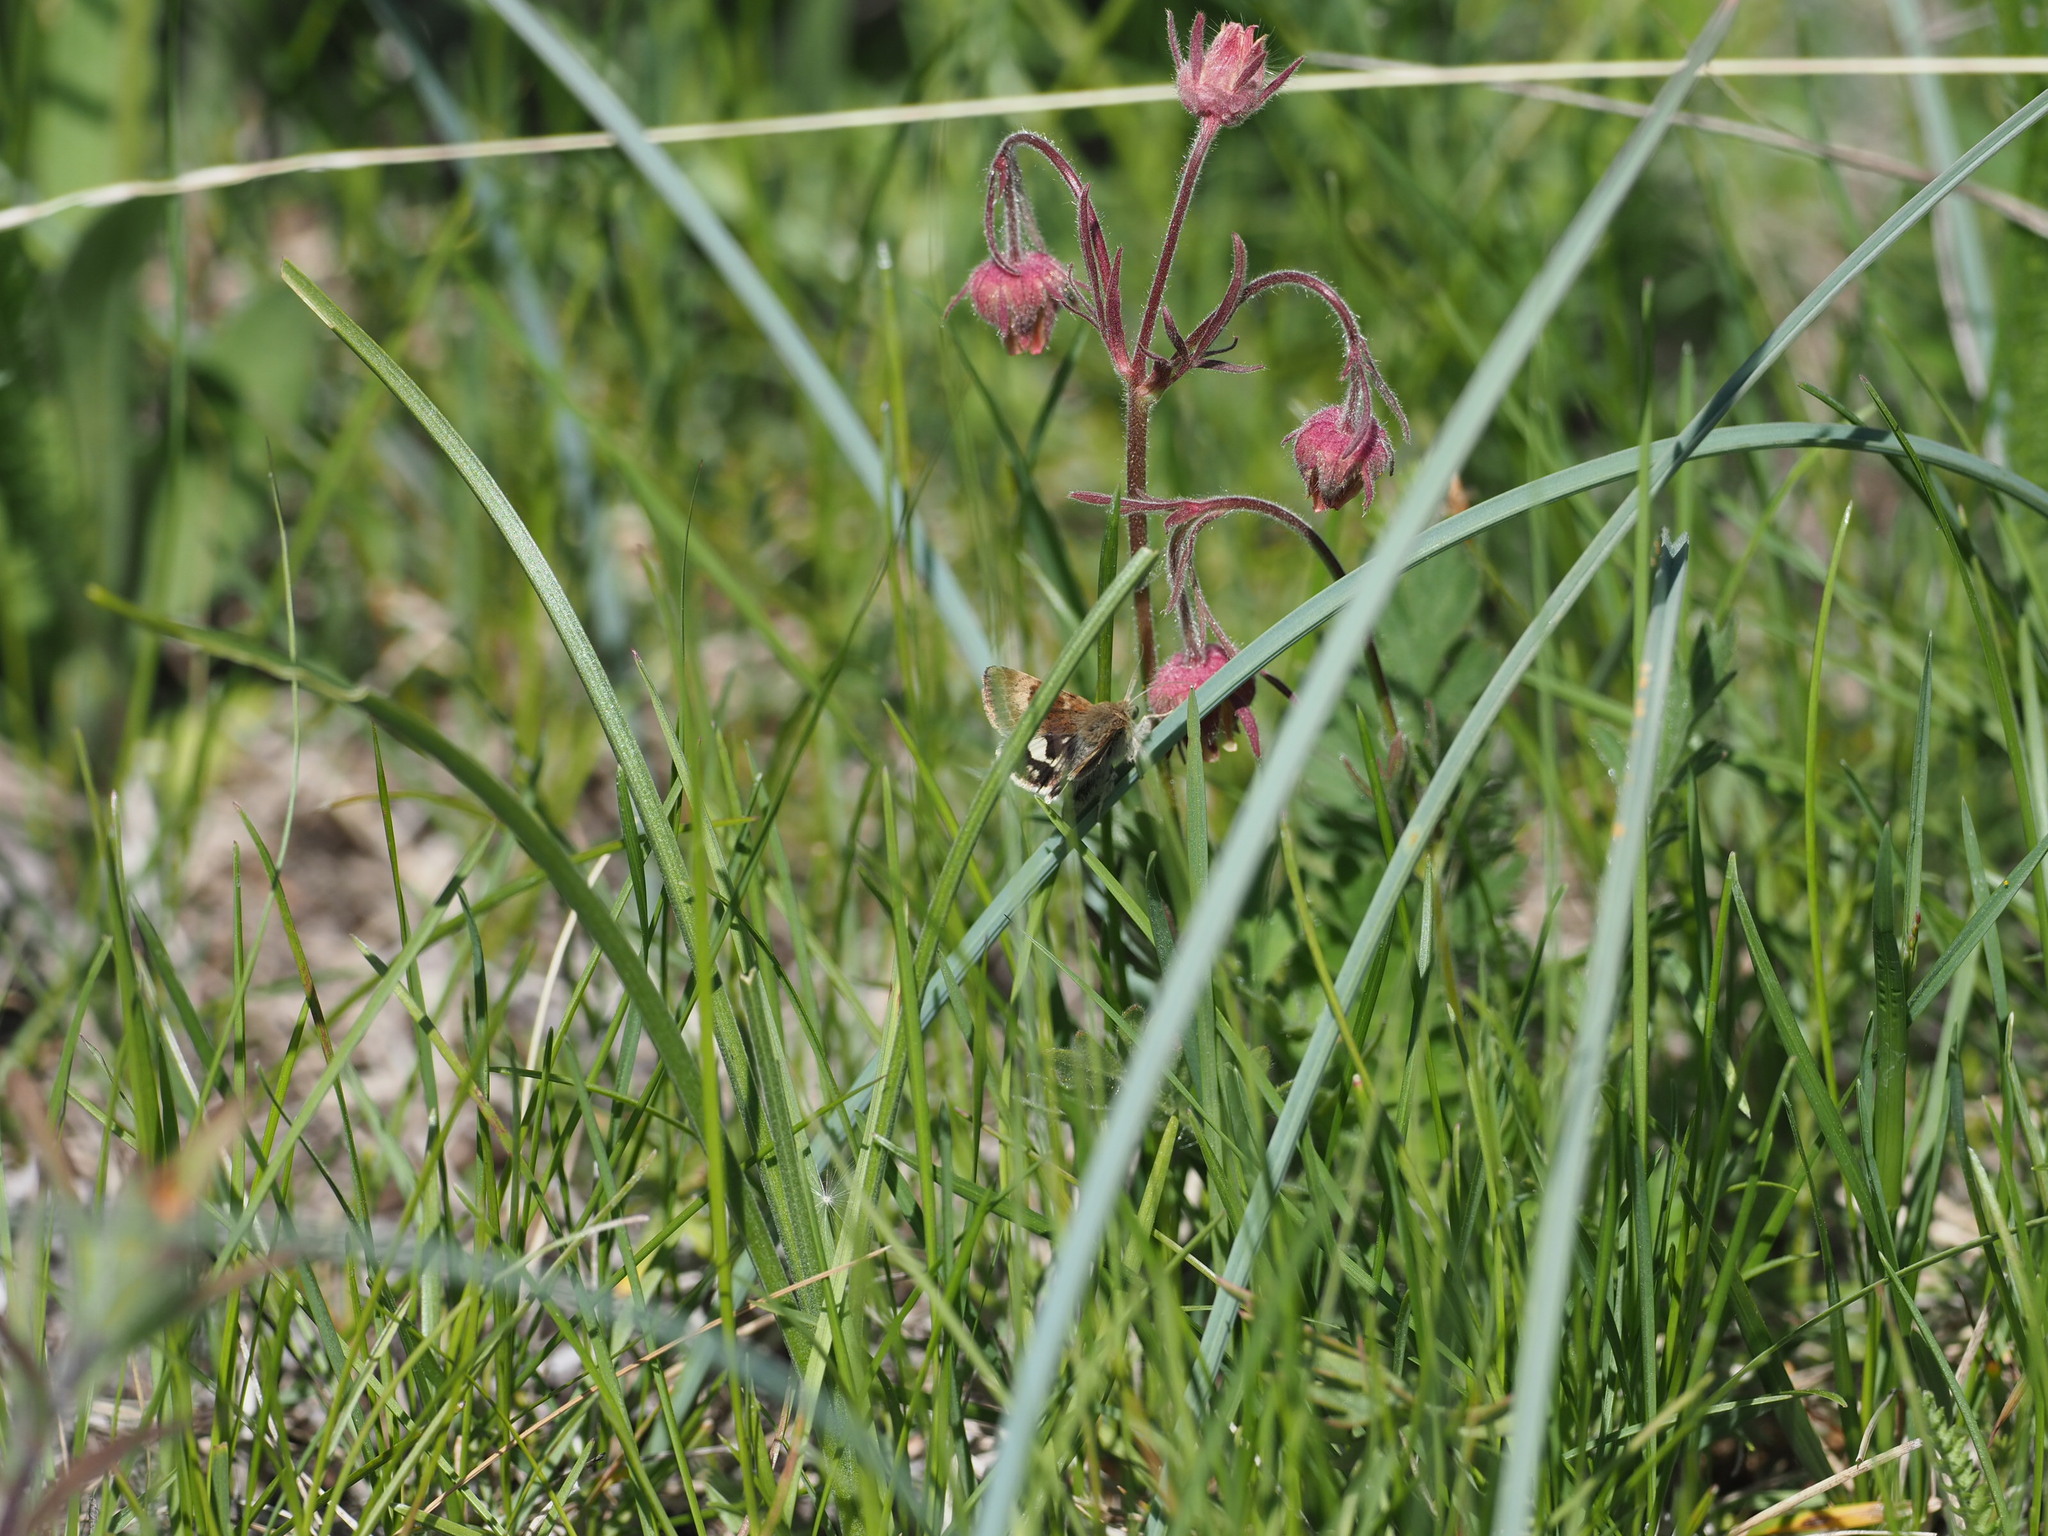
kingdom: Plantae
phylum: Tracheophyta
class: Magnoliopsida
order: Rosales
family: Rosaceae
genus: Geum
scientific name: Geum triflorum
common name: Old man's whiskers
